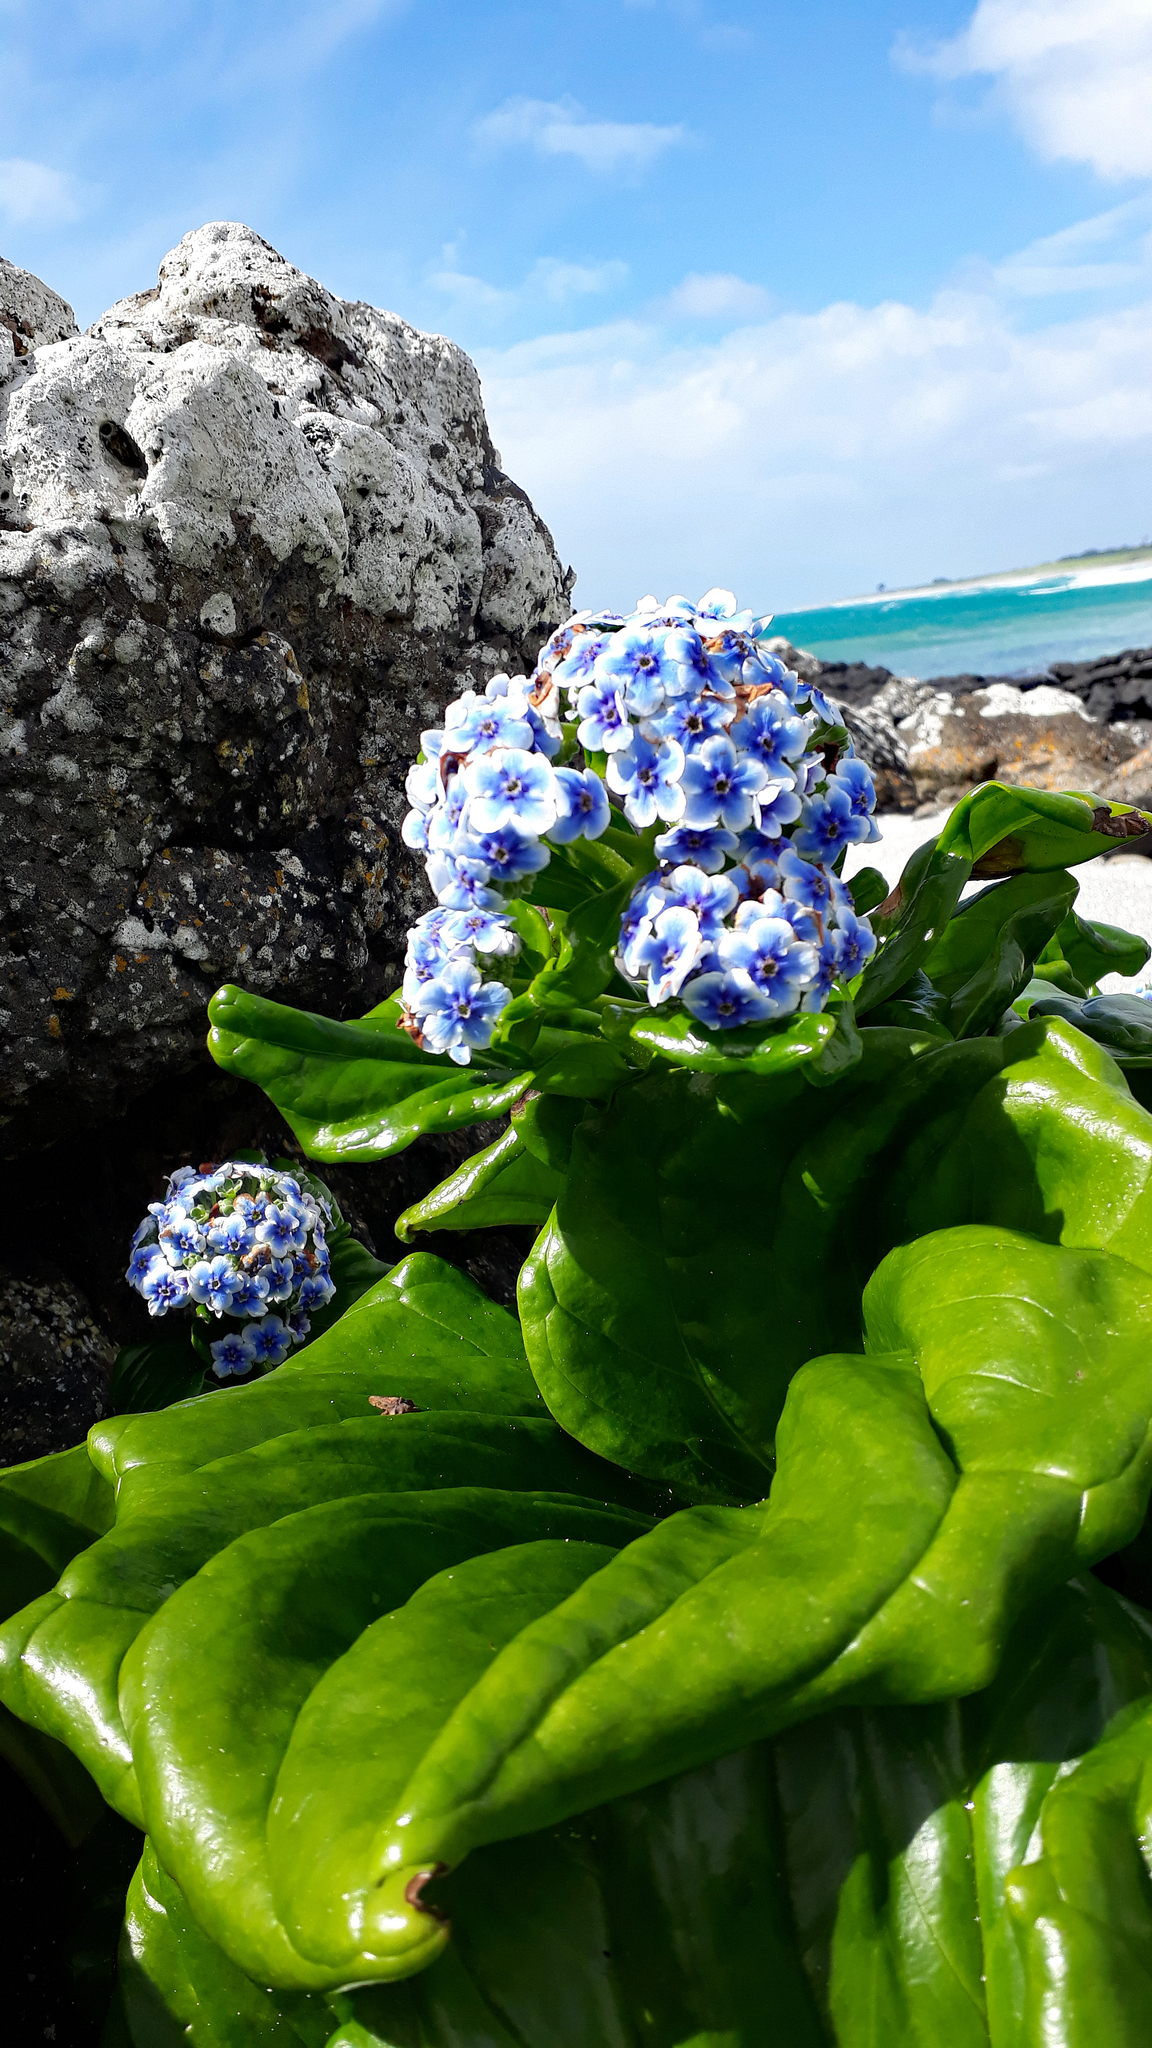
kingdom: Plantae
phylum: Tracheophyta
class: Magnoliopsida
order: Boraginales
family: Boraginaceae
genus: Myosotidium
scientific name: Myosotidium hortensia
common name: Giant forget-me-not
